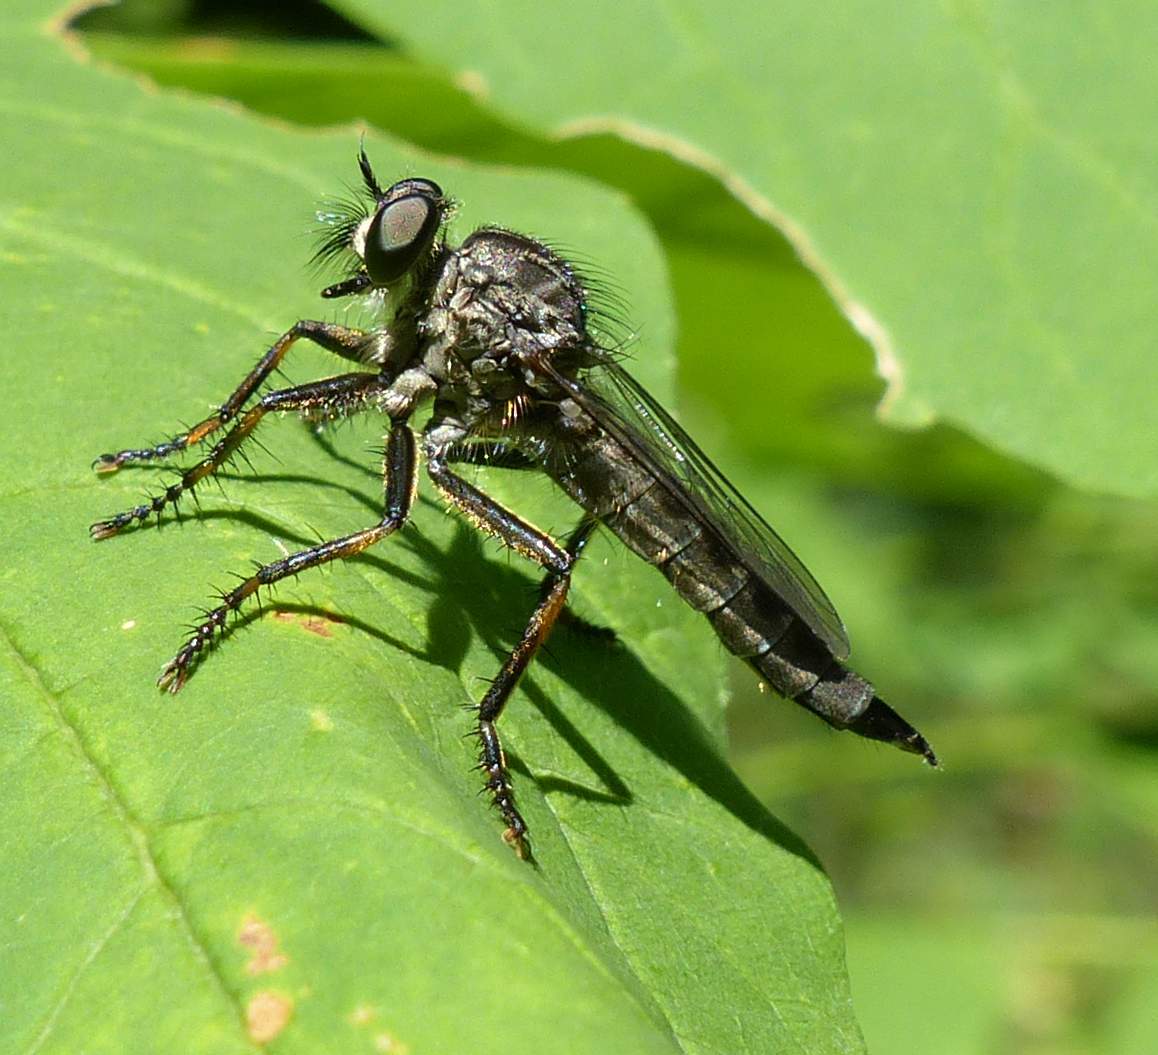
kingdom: Animalia
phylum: Arthropoda
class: Insecta
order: Diptera
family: Asilidae
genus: Machimus
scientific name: Machimus notatus
